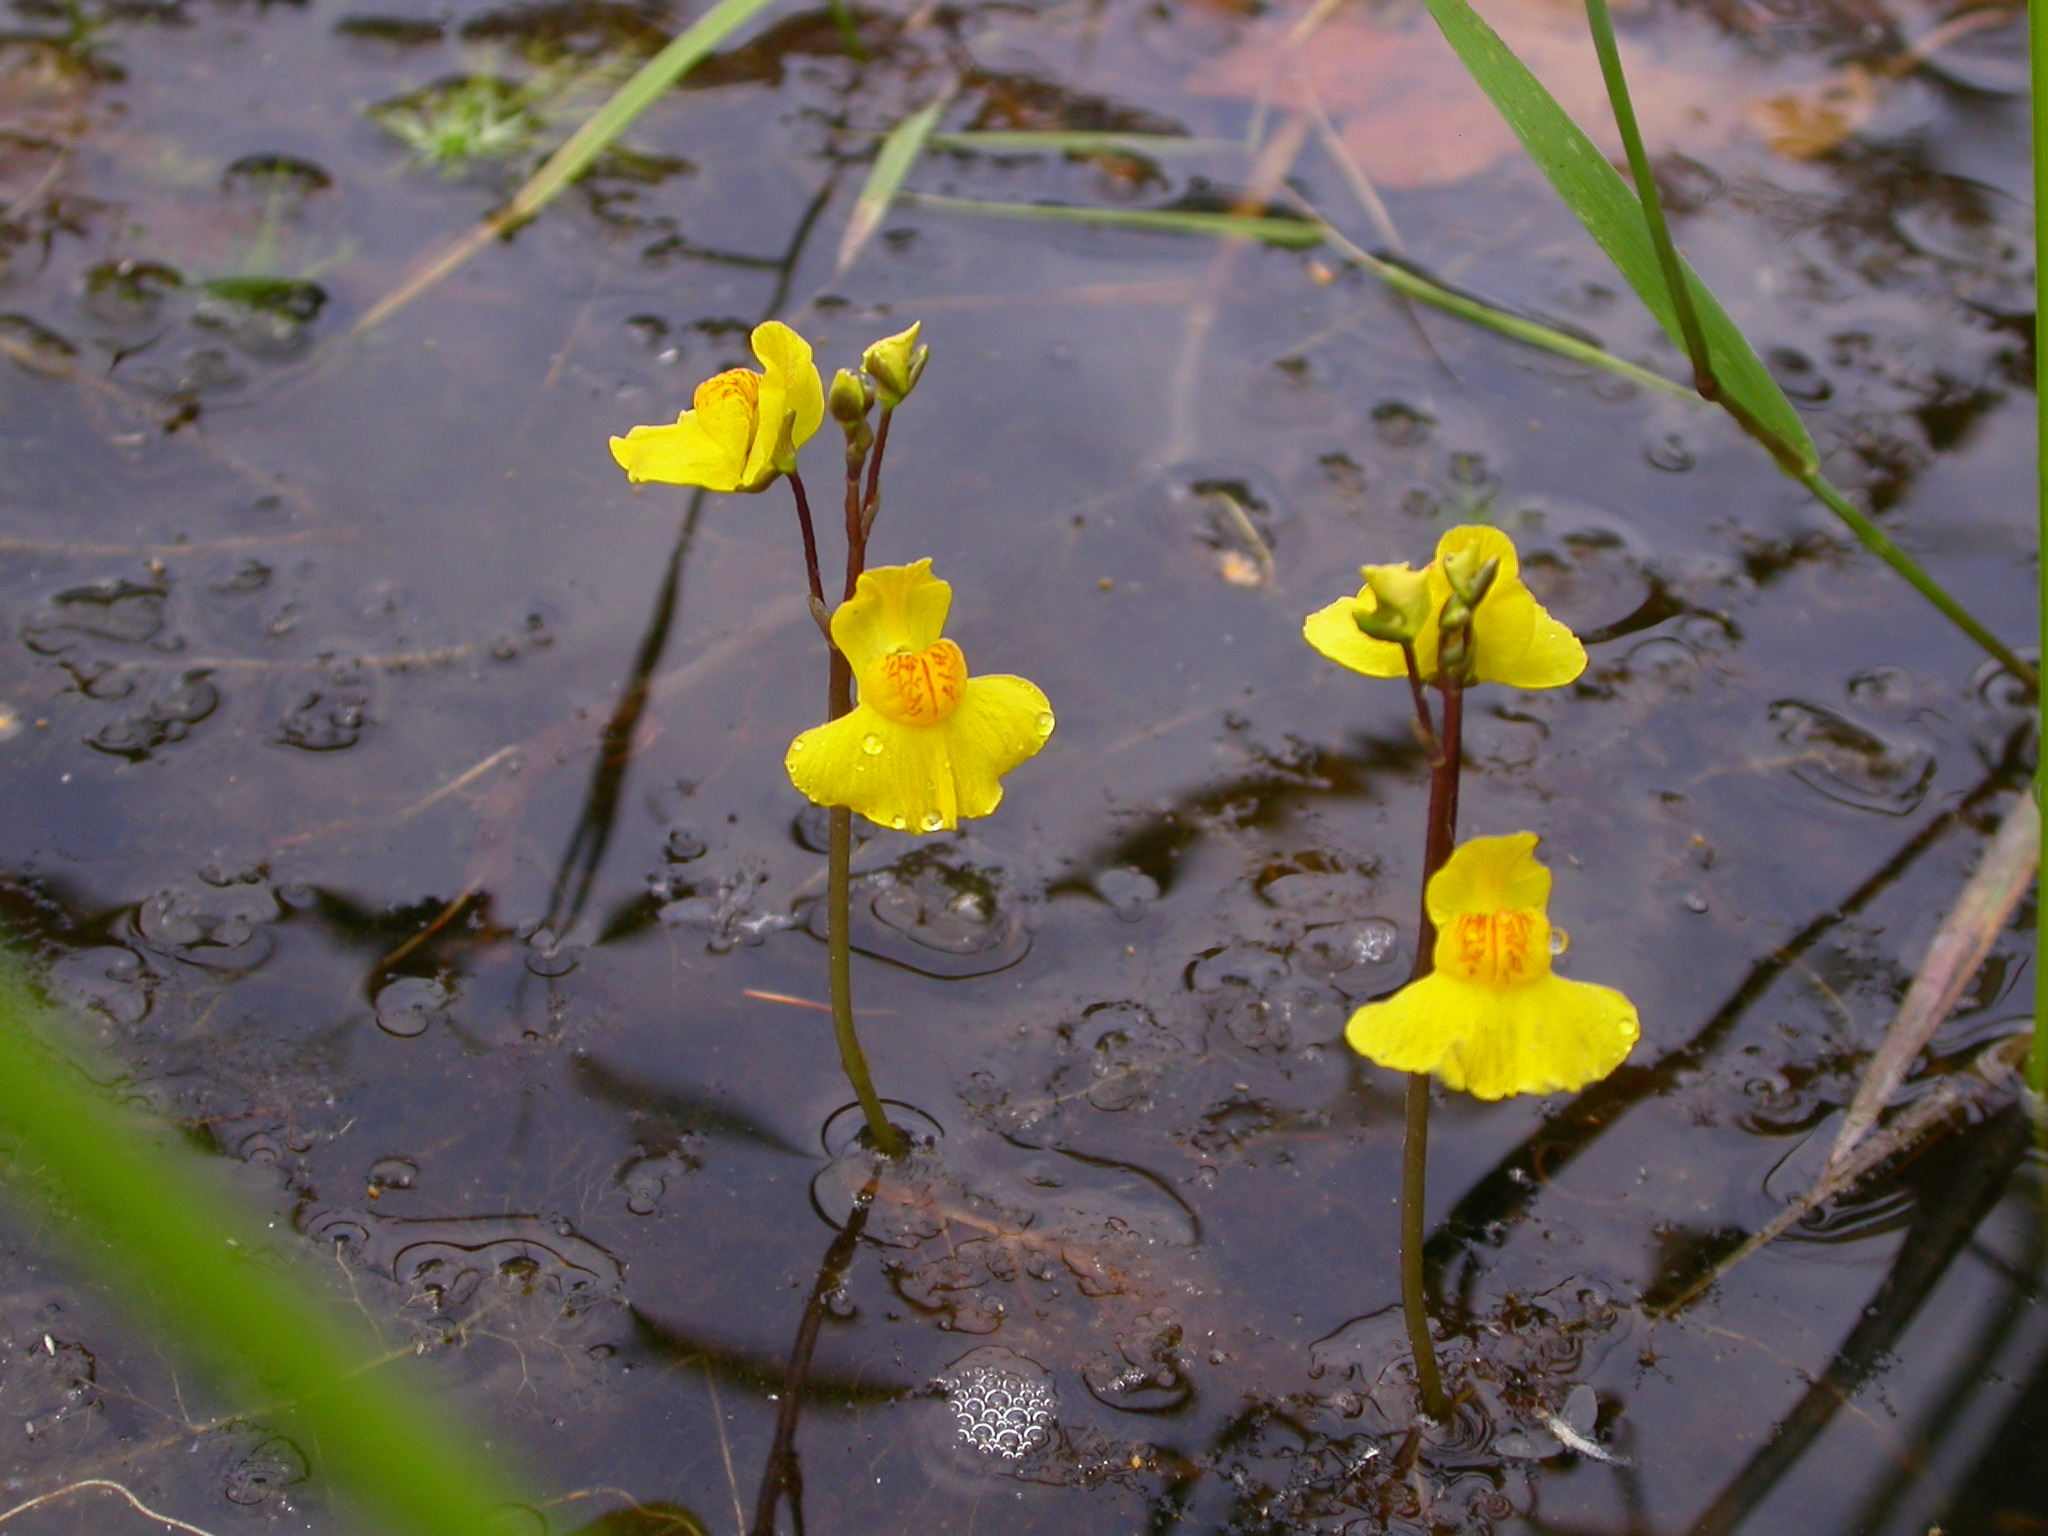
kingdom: Plantae
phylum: Tracheophyta
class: Magnoliopsida
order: Lamiales
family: Lentibulariaceae
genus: Utricularia
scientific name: Utricularia australis
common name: Bladderwort
